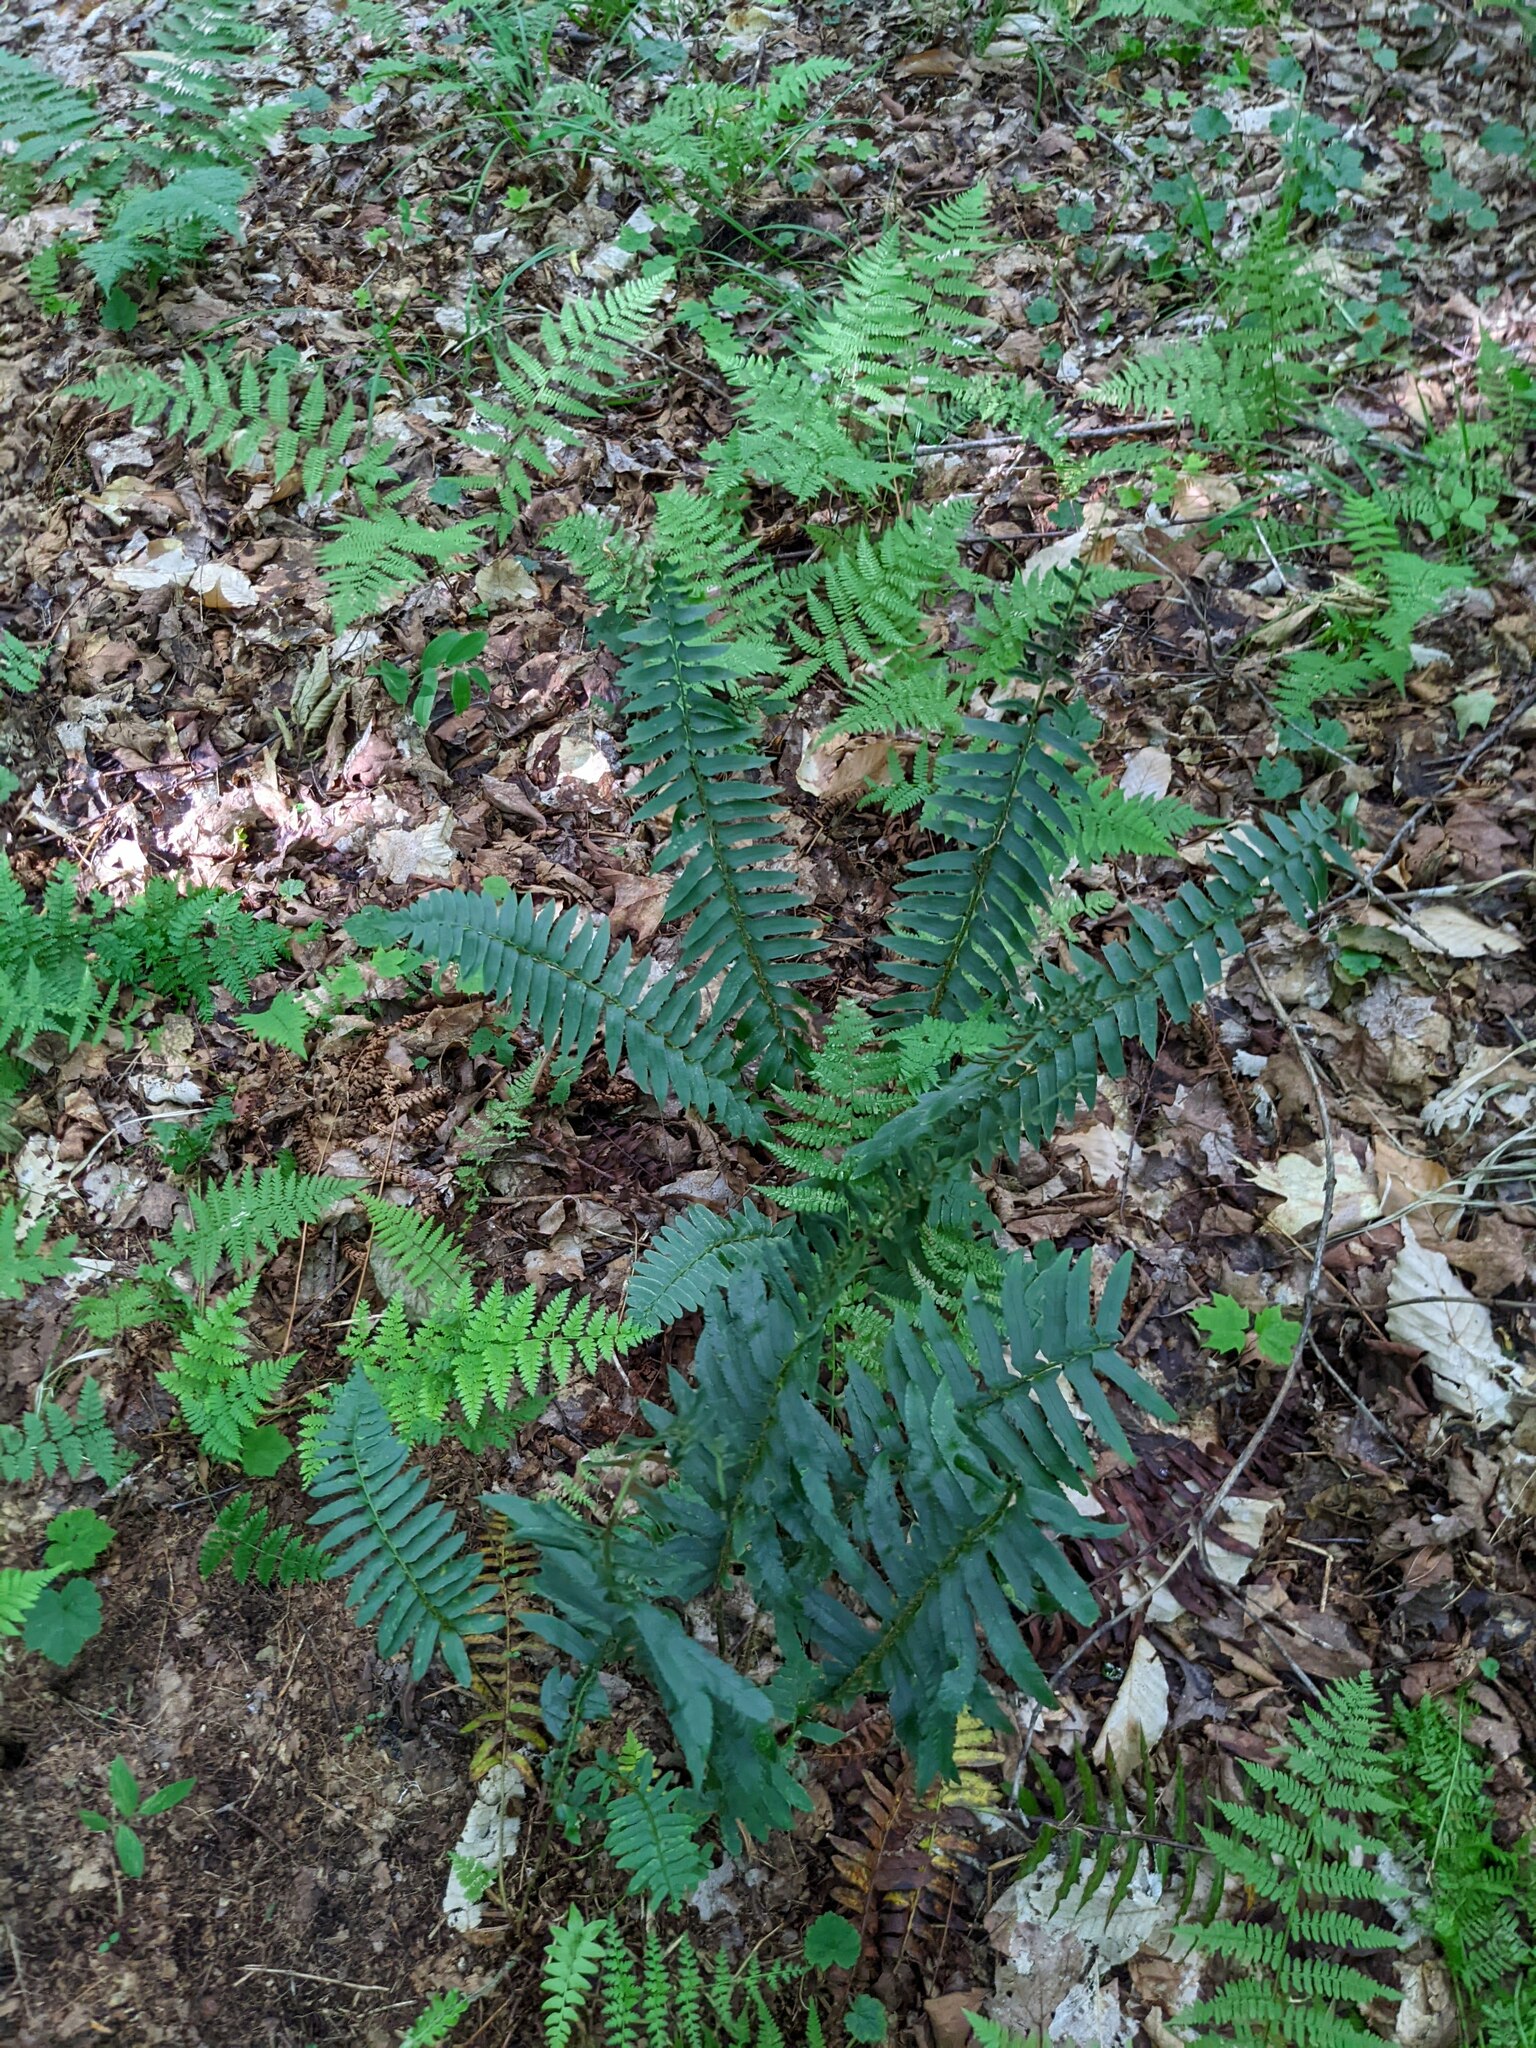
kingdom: Plantae
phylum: Tracheophyta
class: Polypodiopsida
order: Polypodiales
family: Dryopteridaceae
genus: Polystichum
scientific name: Polystichum acrostichoides
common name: Christmas fern
